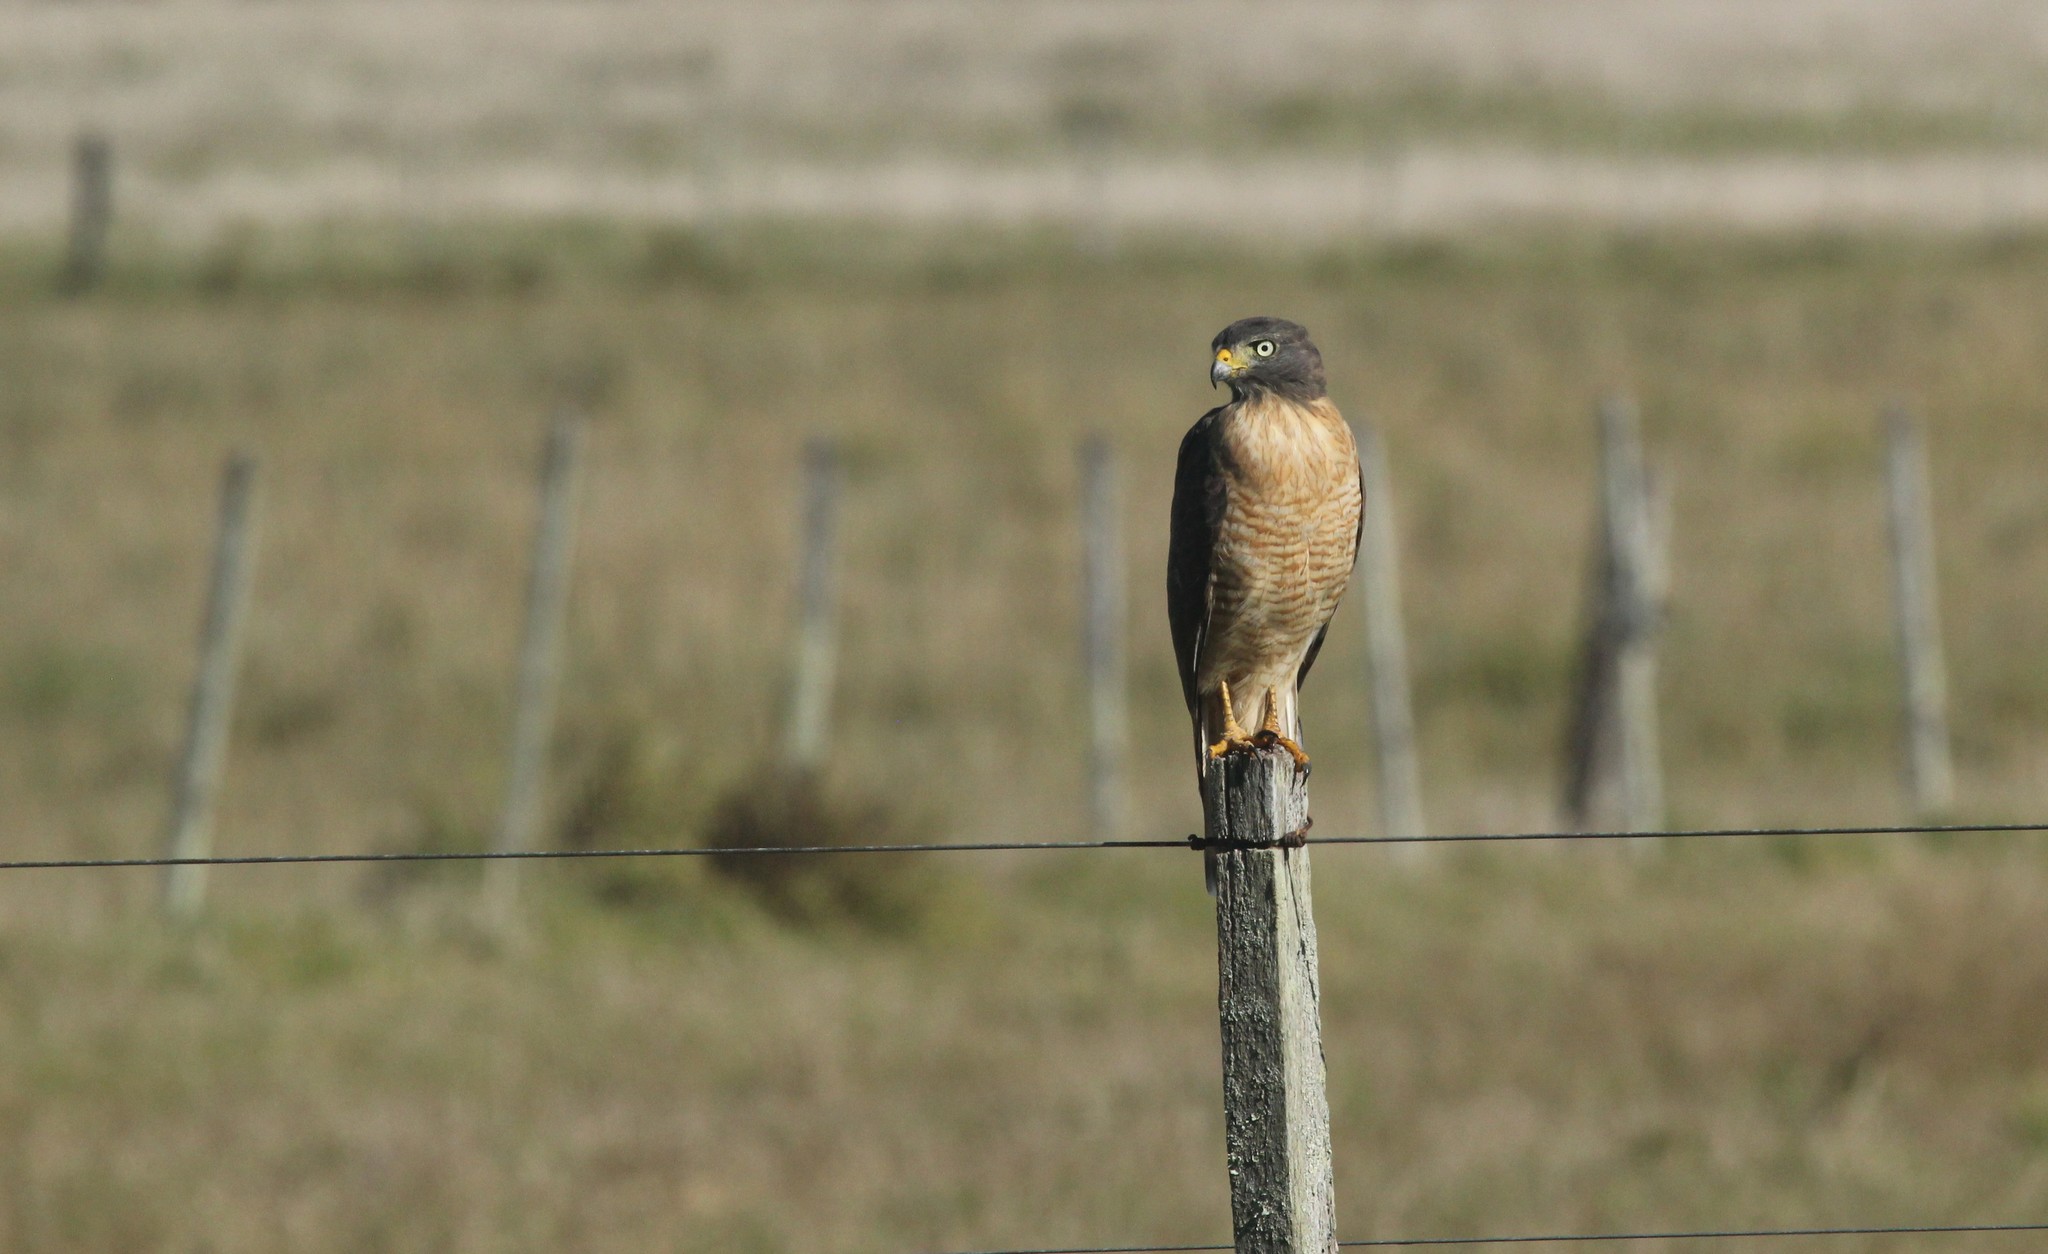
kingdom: Animalia
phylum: Chordata
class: Aves
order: Accipitriformes
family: Accipitridae
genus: Rupornis
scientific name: Rupornis magnirostris
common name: Roadside hawk
